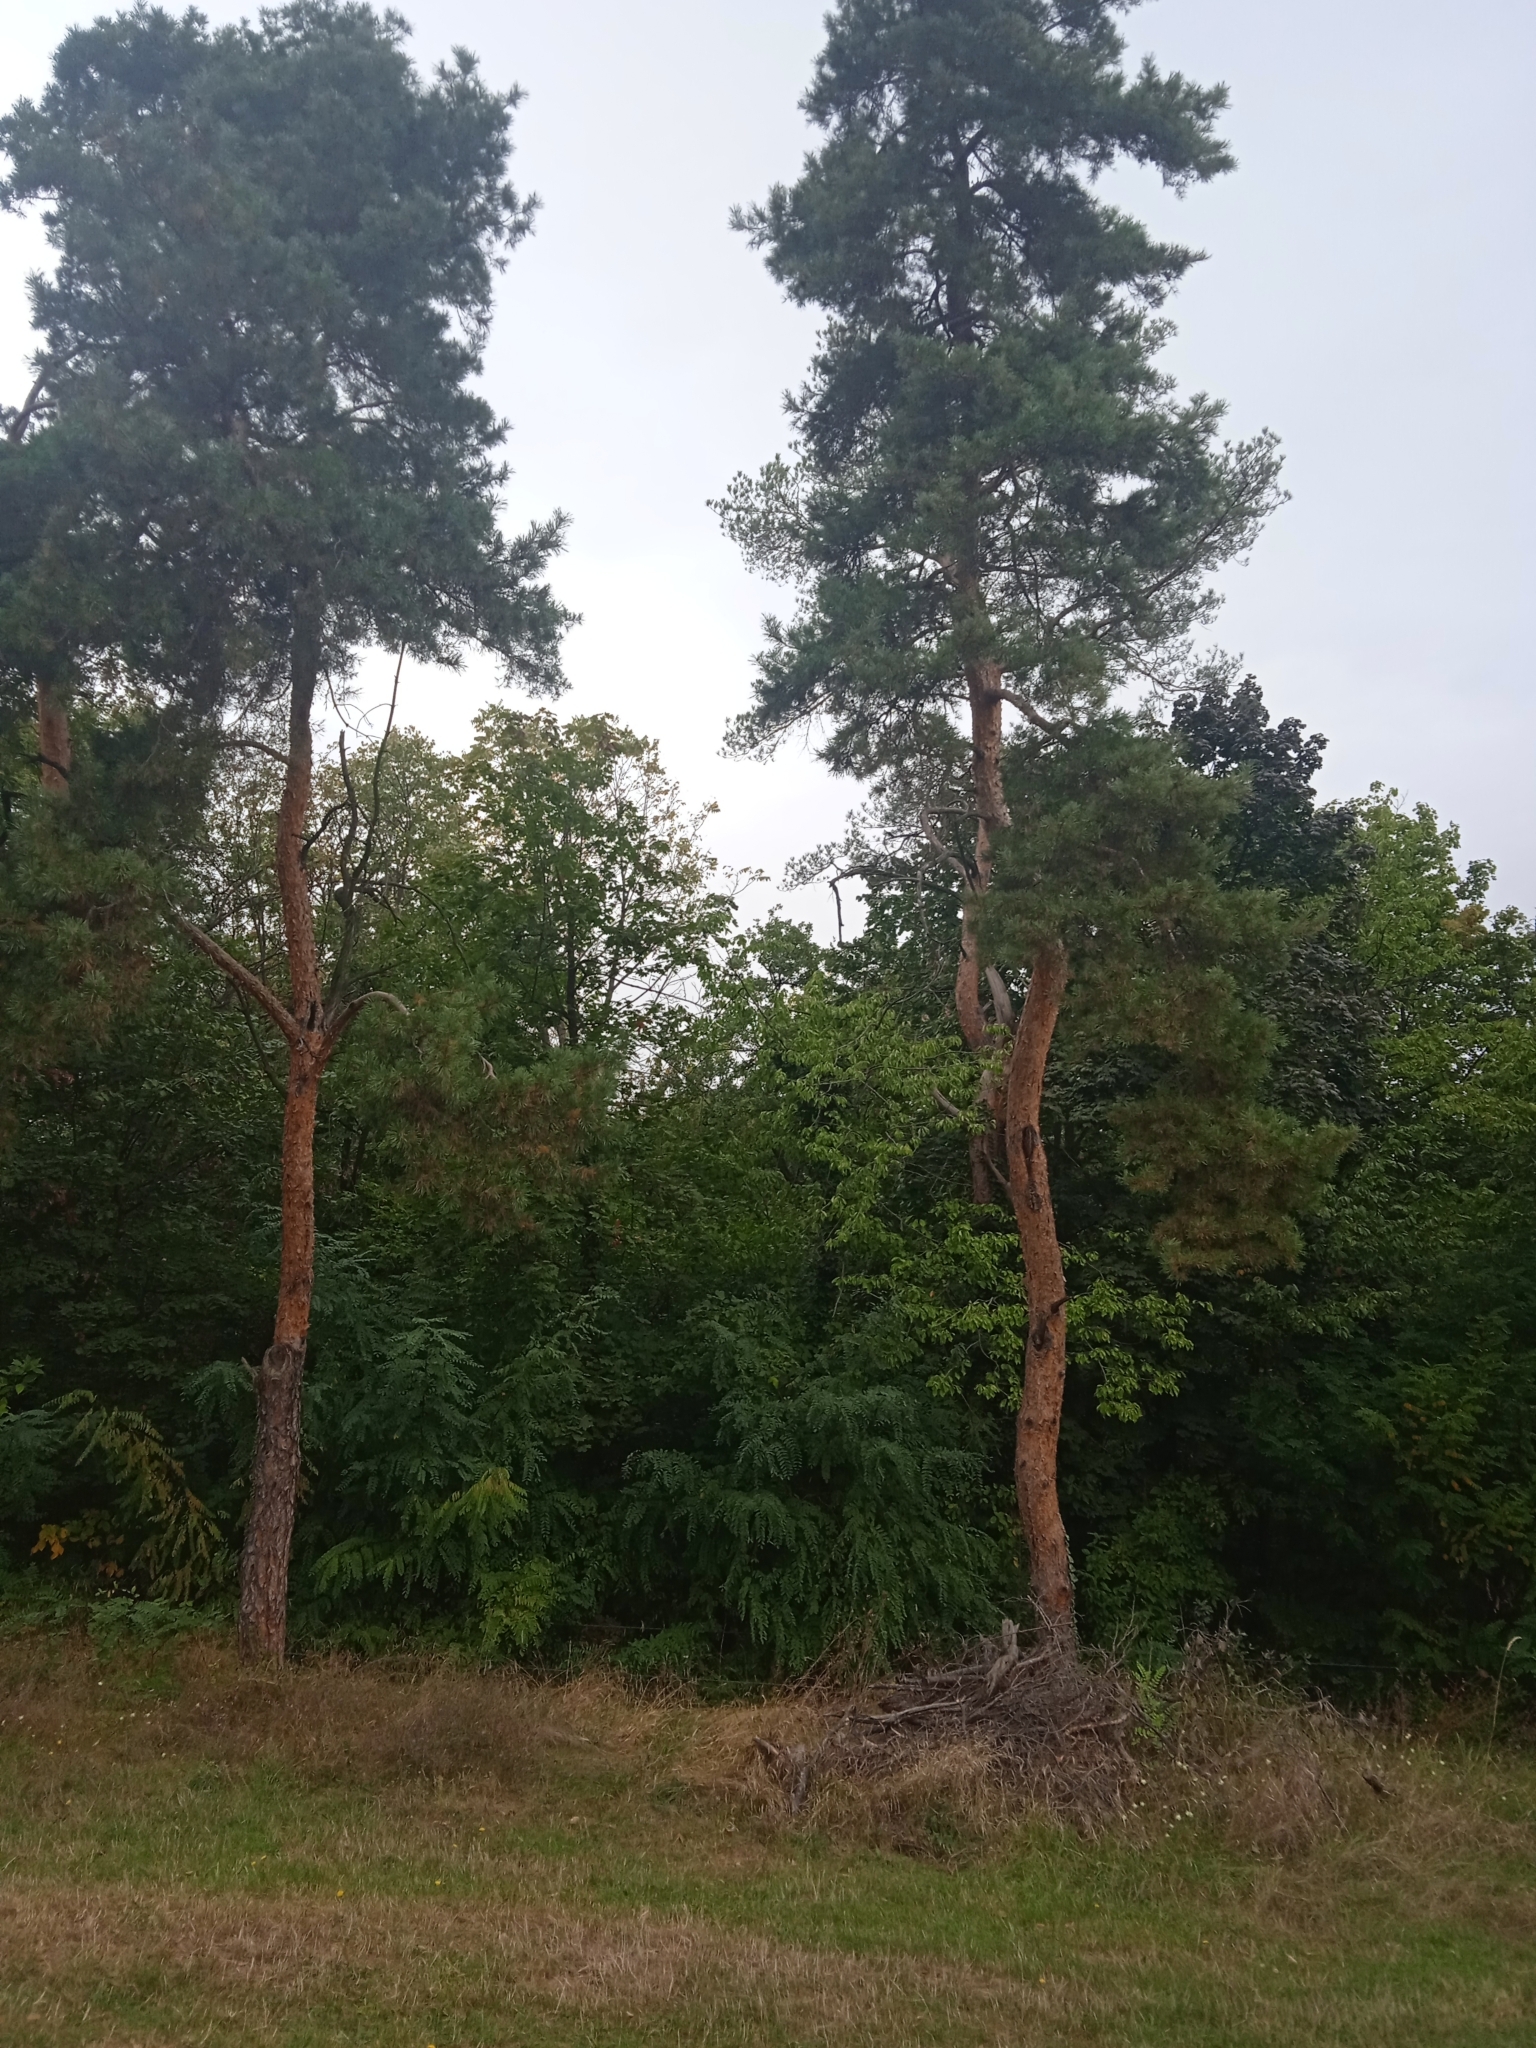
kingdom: Plantae
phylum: Tracheophyta
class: Pinopsida
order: Pinales
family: Pinaceae
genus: Pinus
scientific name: Pinus sylvestris
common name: Scots pine
